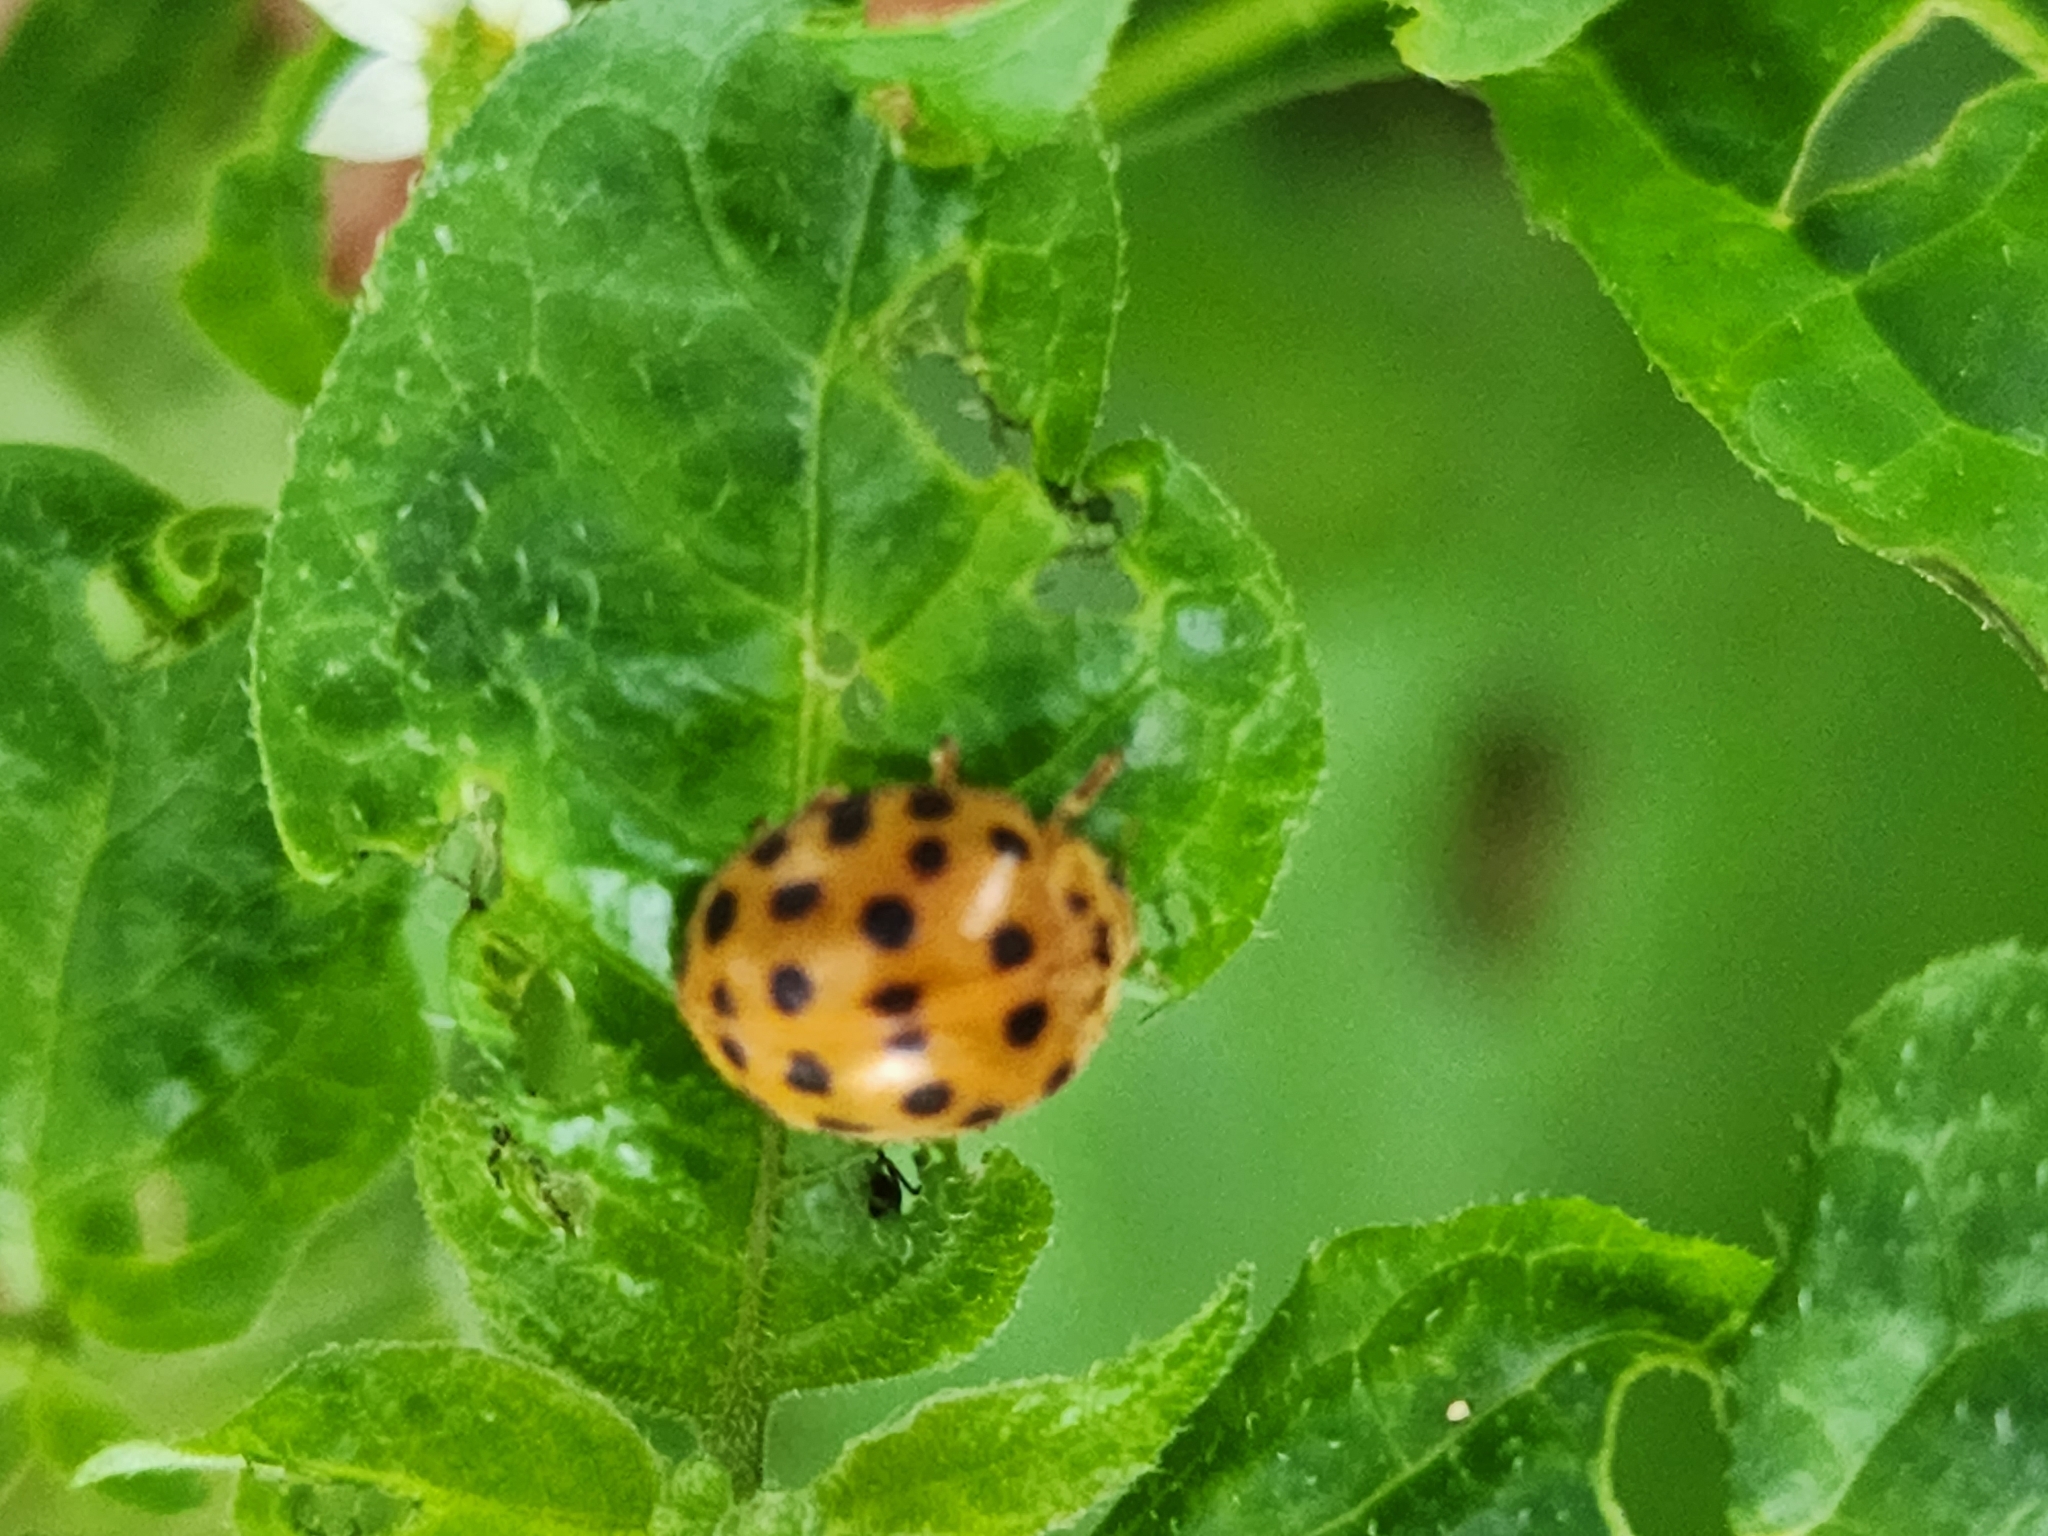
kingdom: Animalia
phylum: Arthropoda
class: Insecta
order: Coleoptera
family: Coccinellidae
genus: Henosepilachna
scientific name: Henosepilachna vigintioctopunctata
